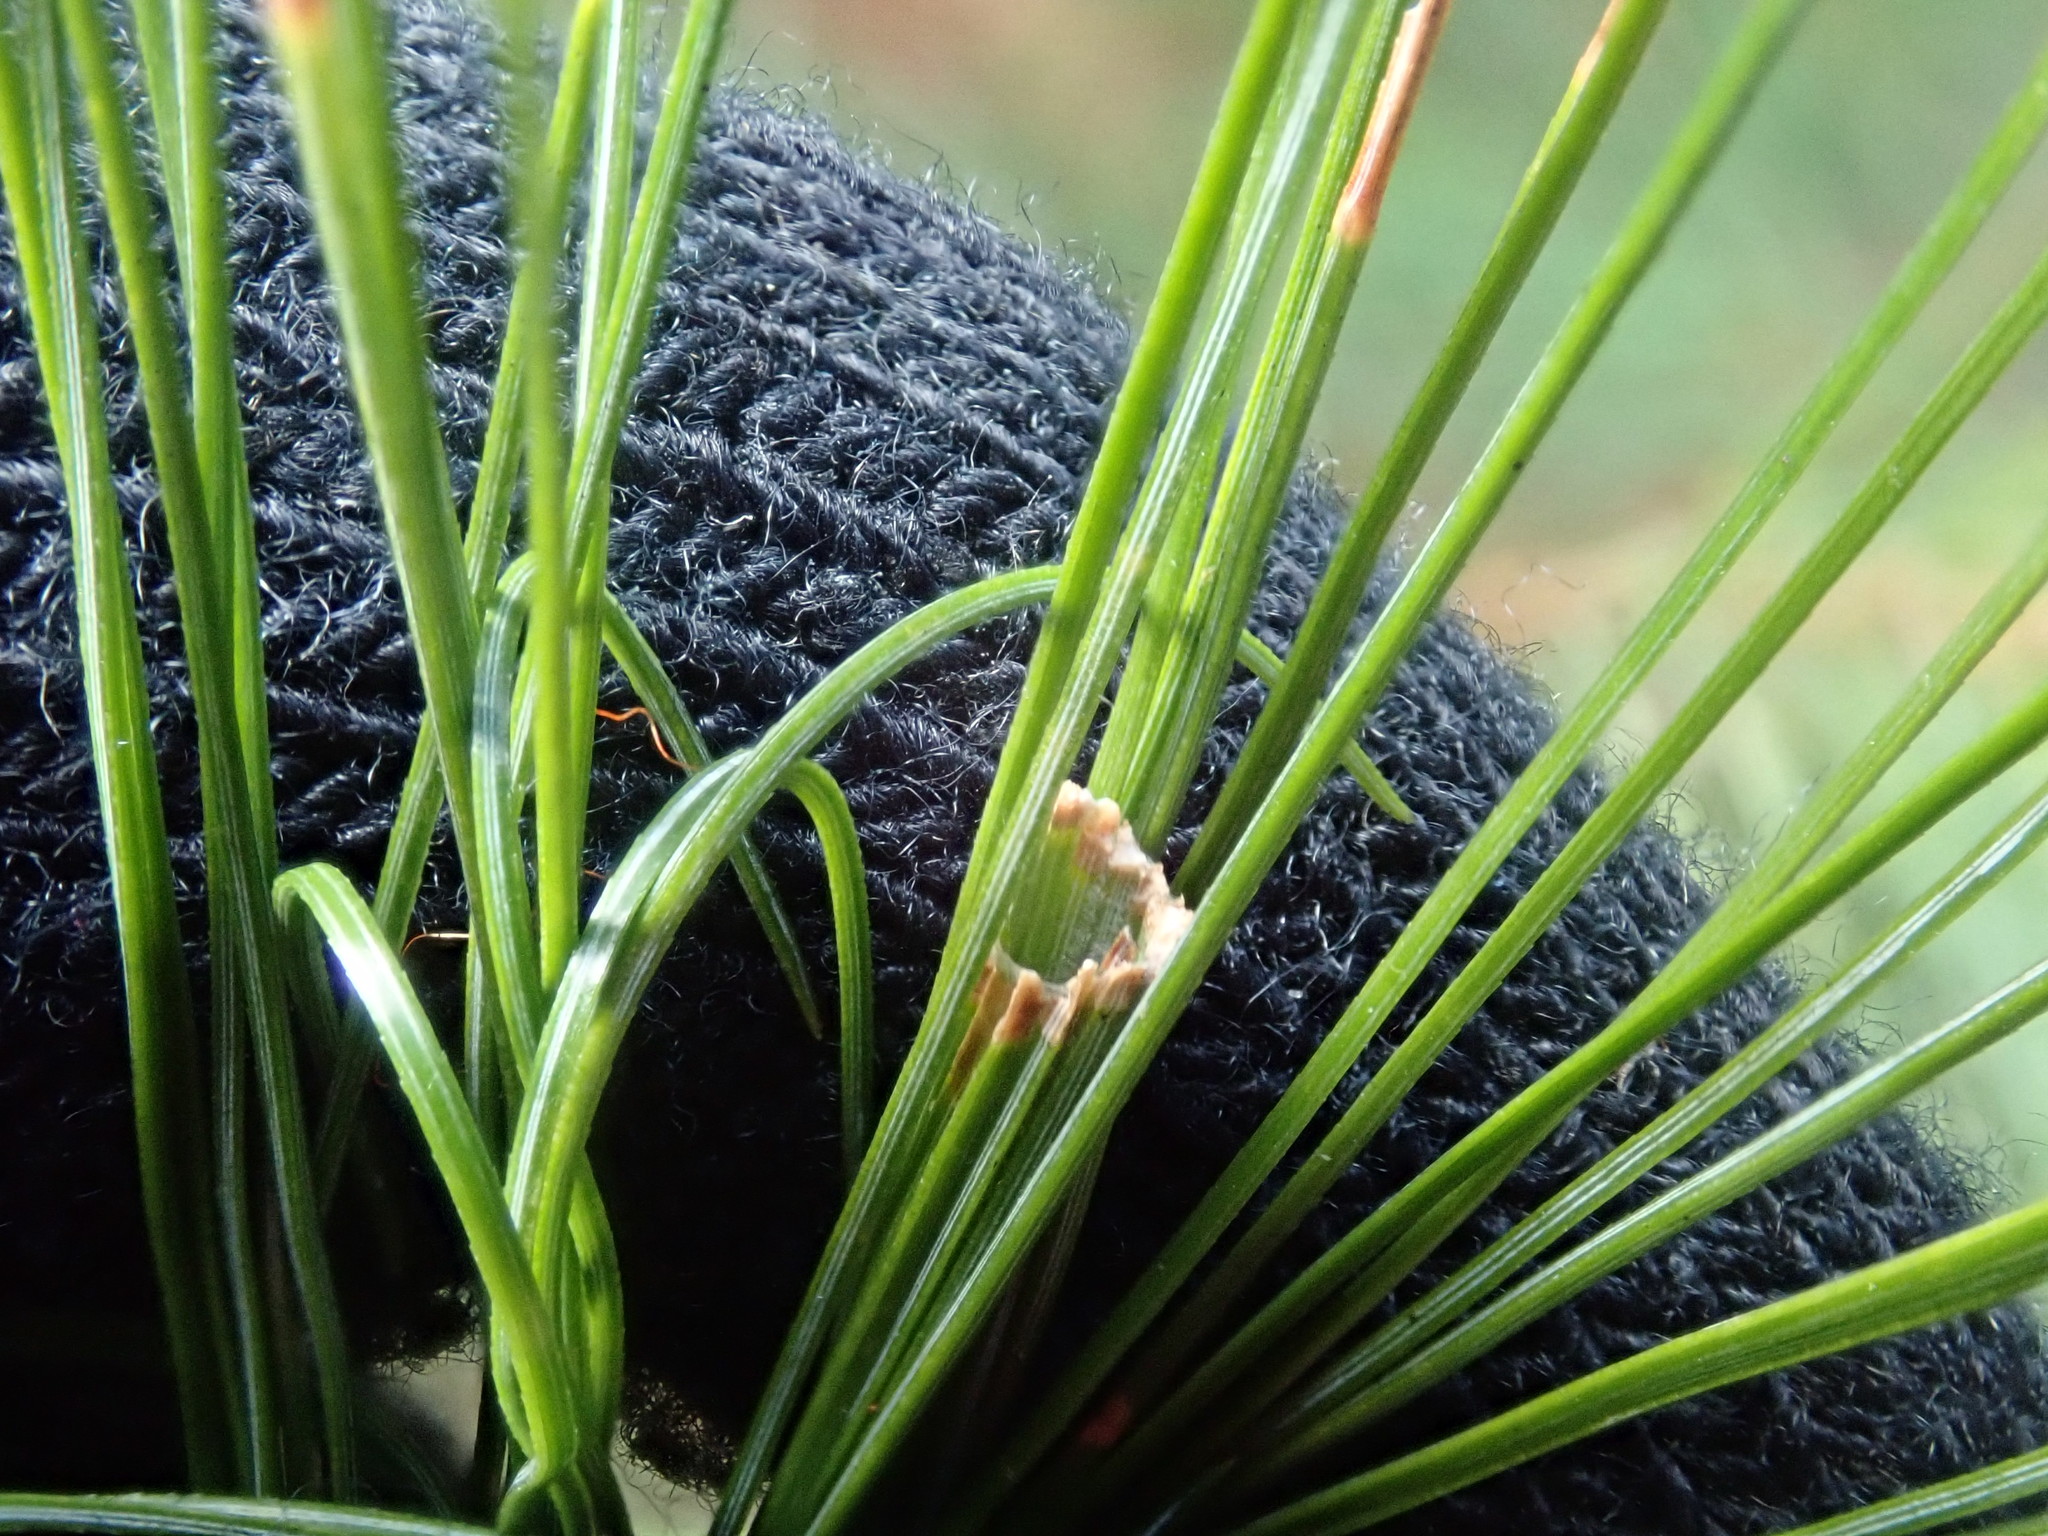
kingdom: Animalia
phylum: Arthropoda
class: Insecta
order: Lepidoptera
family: Tortricidae
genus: Argyrotaenia
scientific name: Argyrotaenia pinatubana
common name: Pine tube moth
